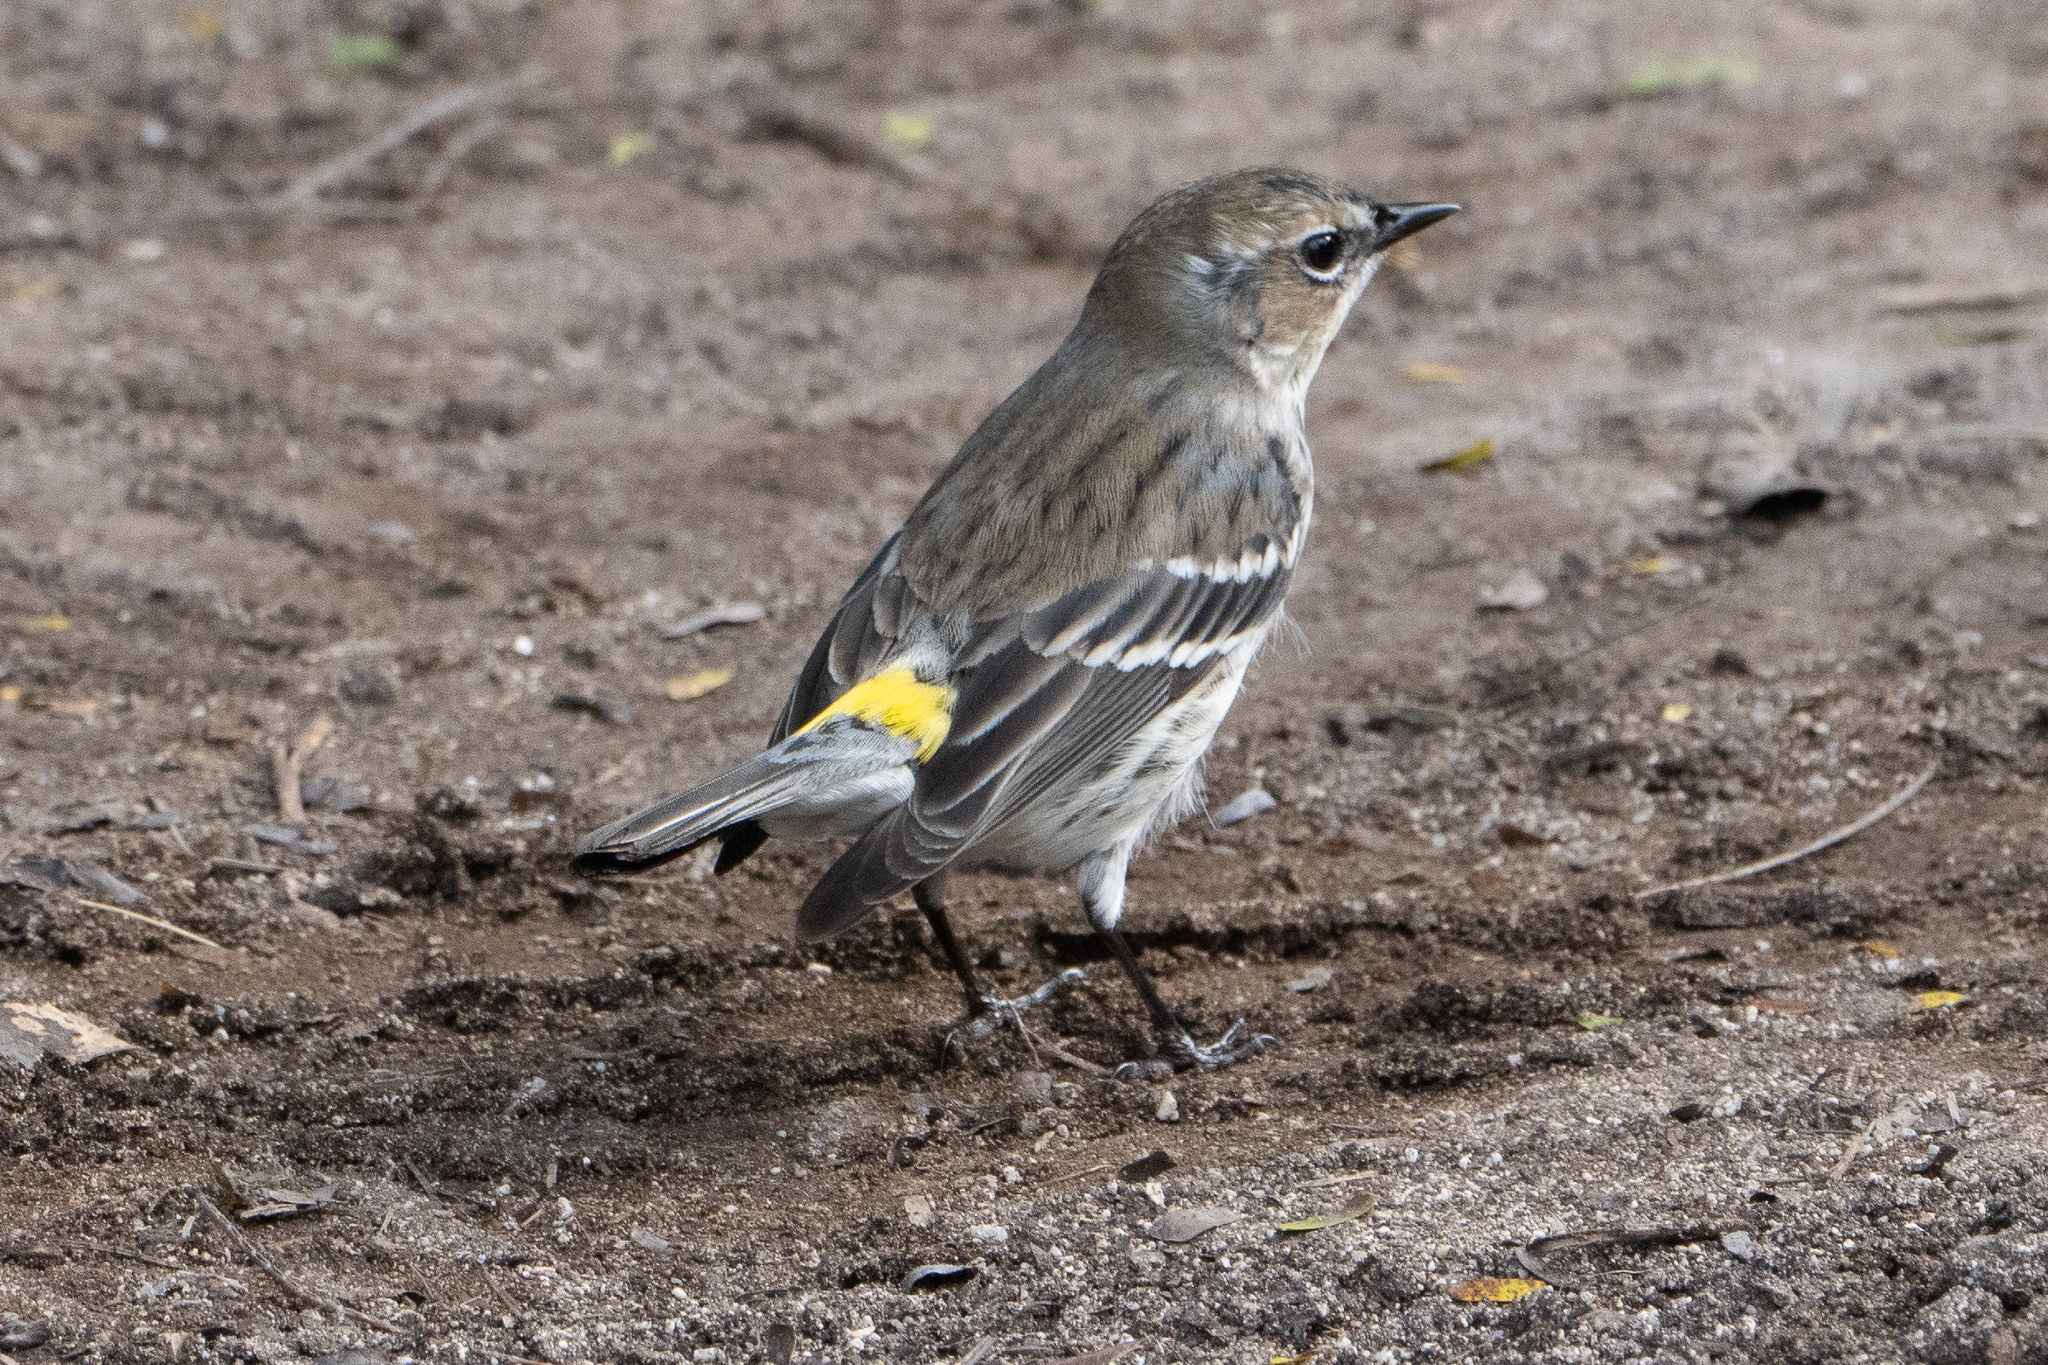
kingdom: Animalia
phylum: Chordata
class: Aves
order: Passeriformes
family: Parulidae
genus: Setophaga
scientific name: Setophaga coronata
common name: Myrtle warbler
